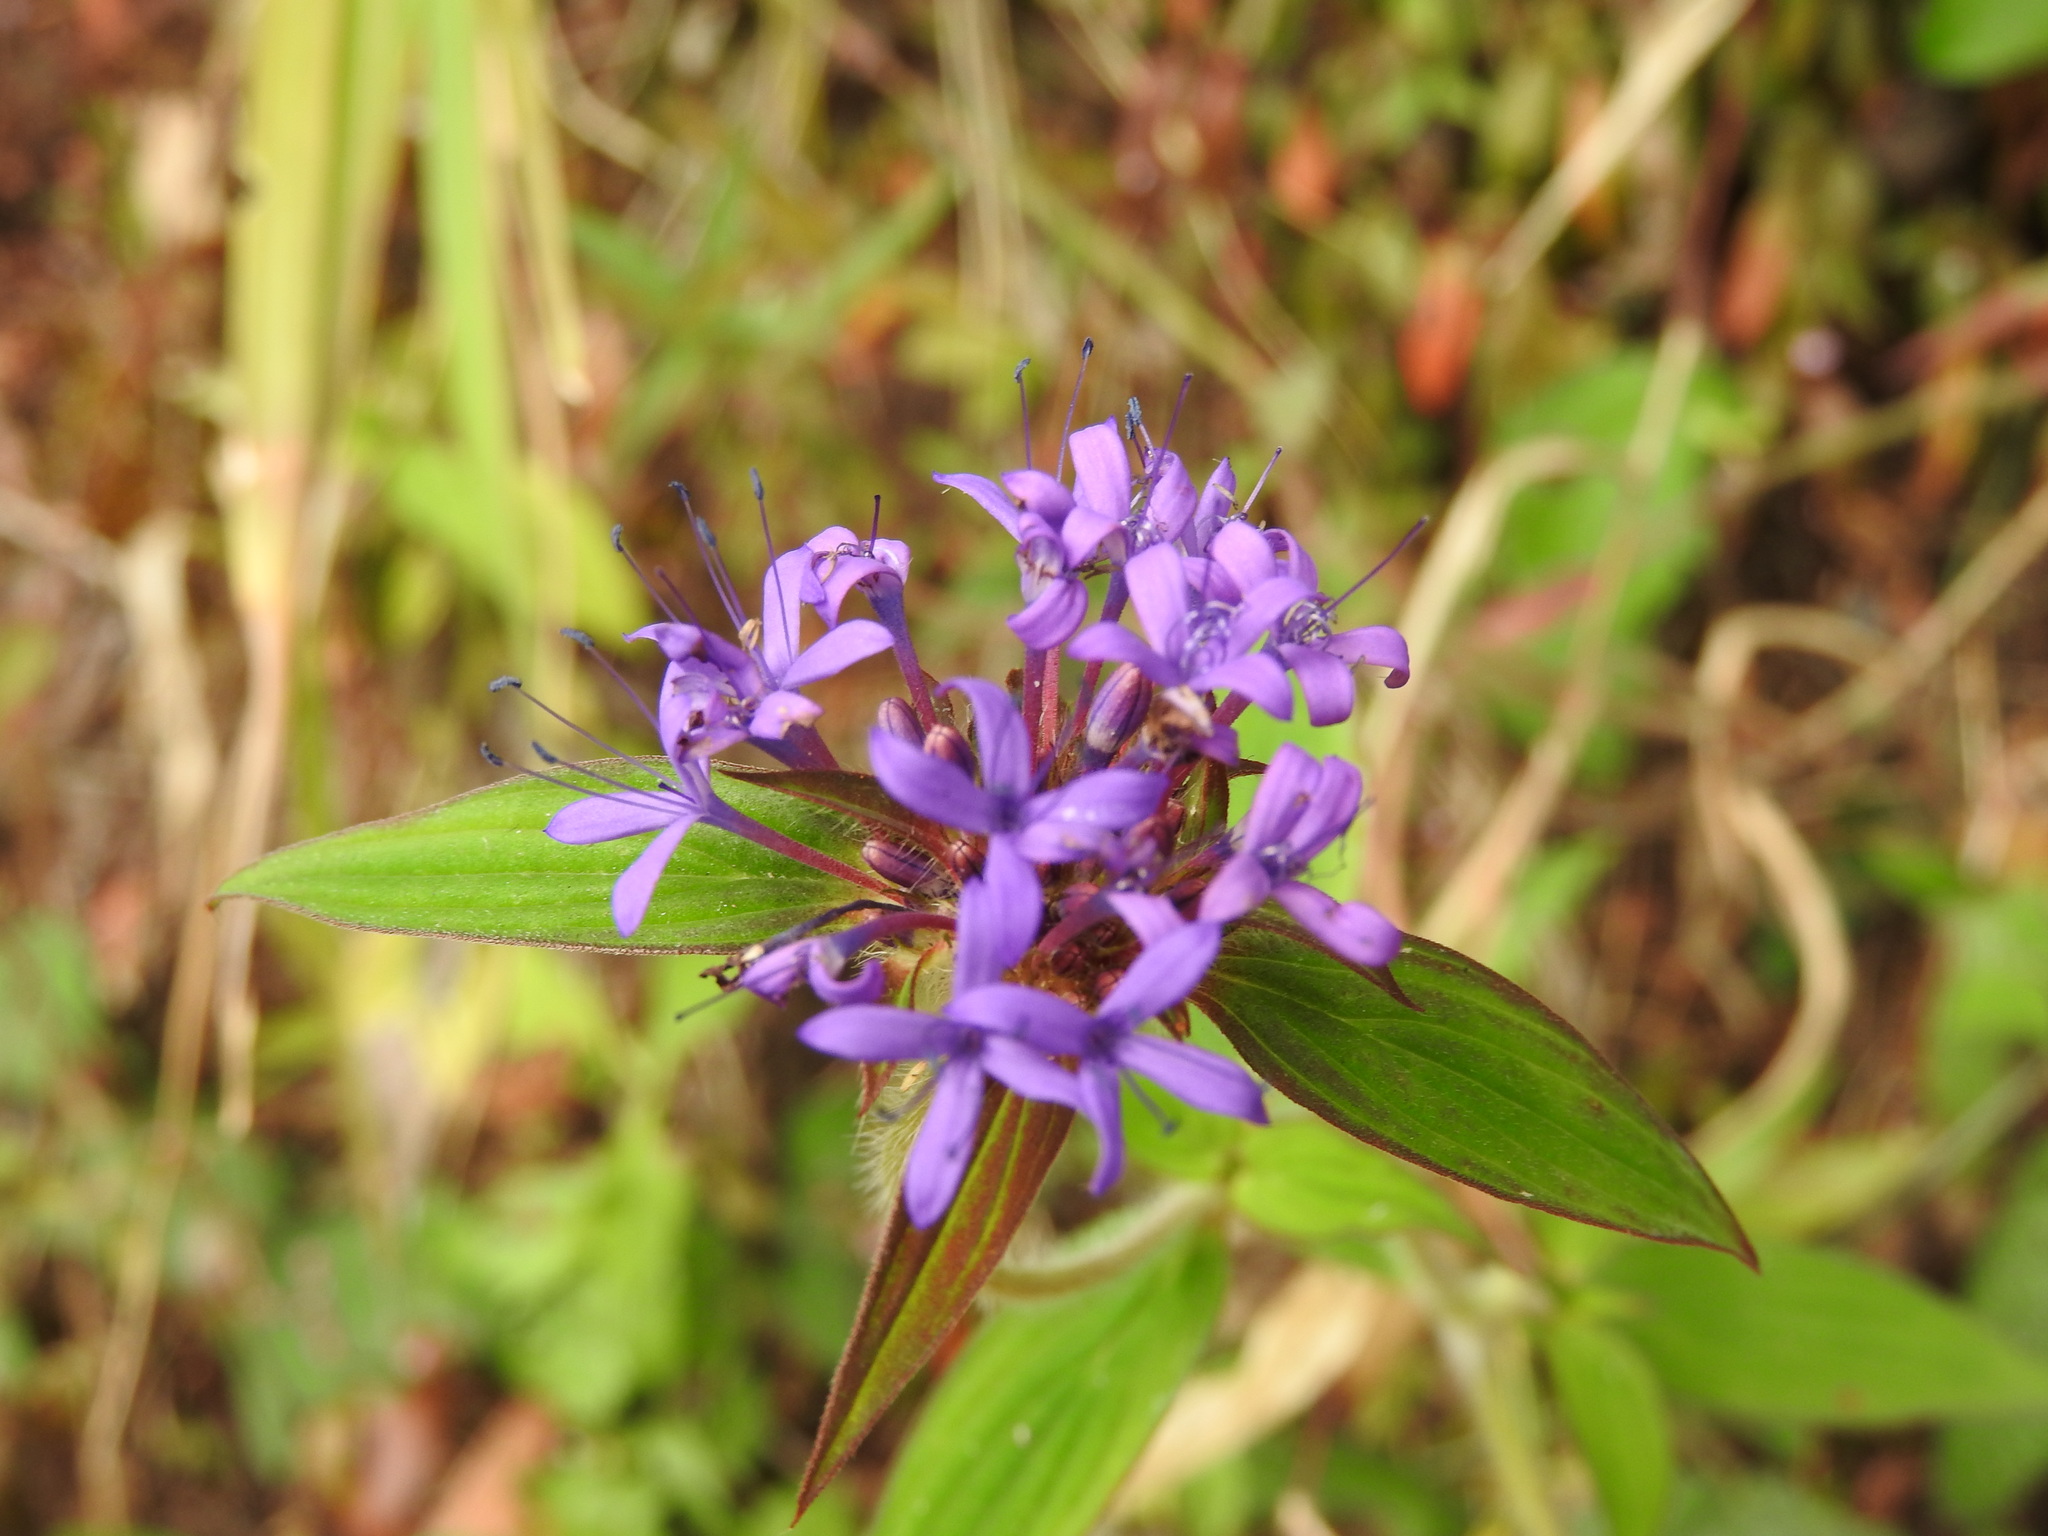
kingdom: Plantae
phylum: Tracheophyta
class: Magnoliopsida
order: Gentianales
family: Rubiaceae
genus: Crusea
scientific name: Crusea hispida
